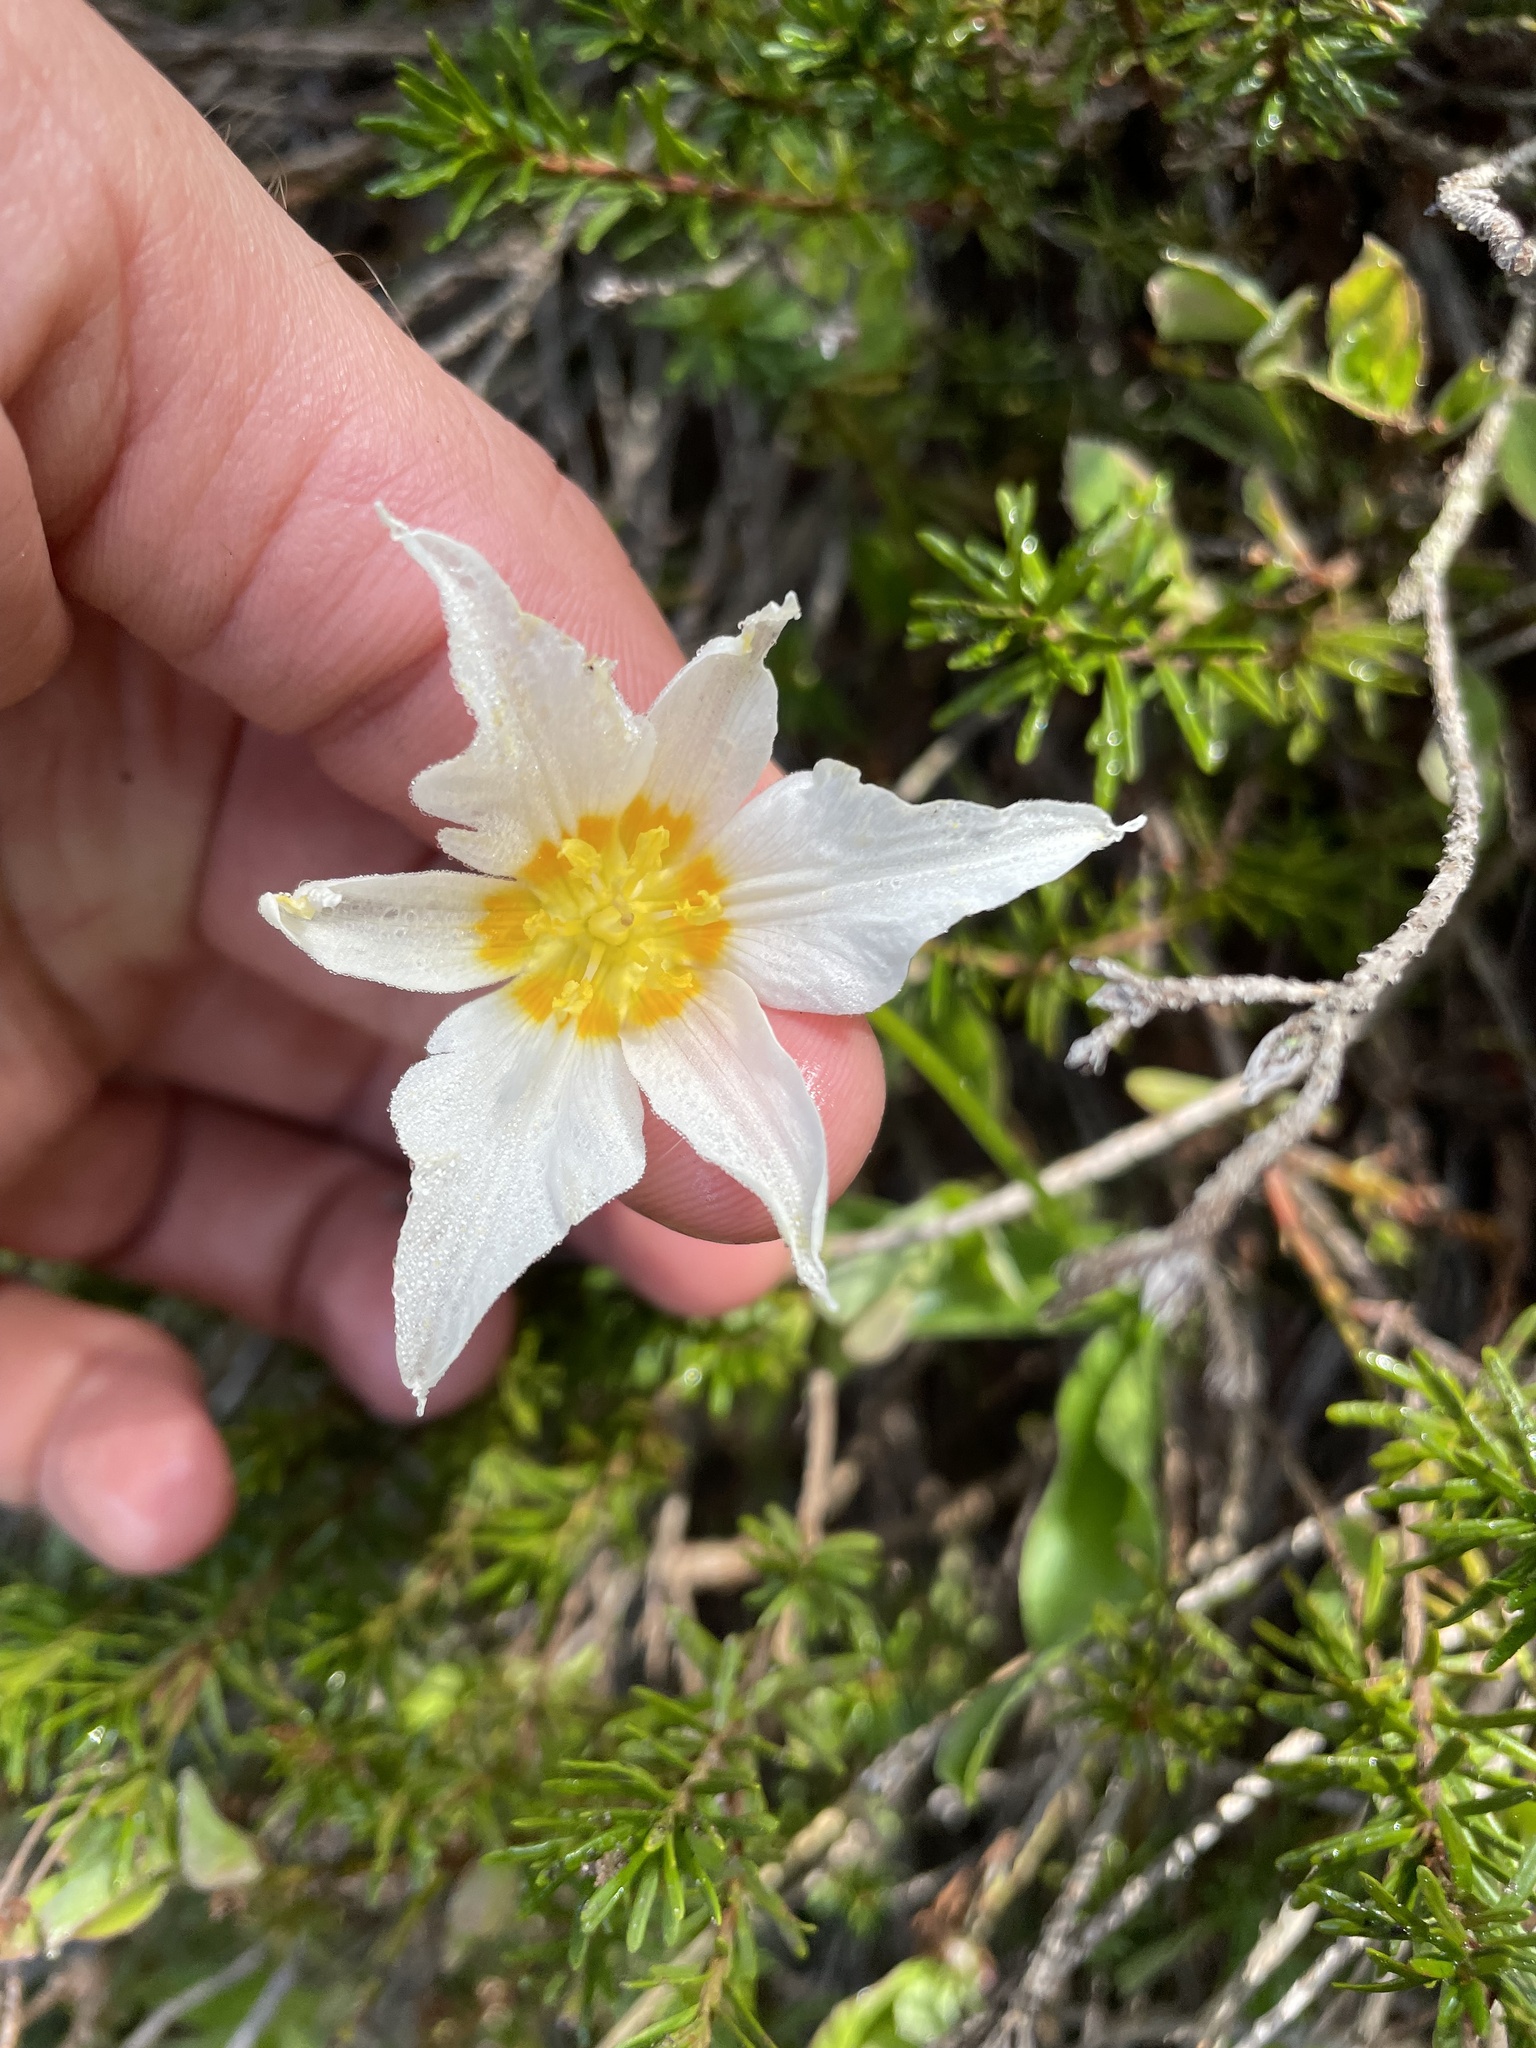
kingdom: Plantae
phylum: Tracheophyta
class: Liliopsida
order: Liliales
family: Liliaceae
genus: Erythronium
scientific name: Erythronium montanum
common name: Avalanche lily
